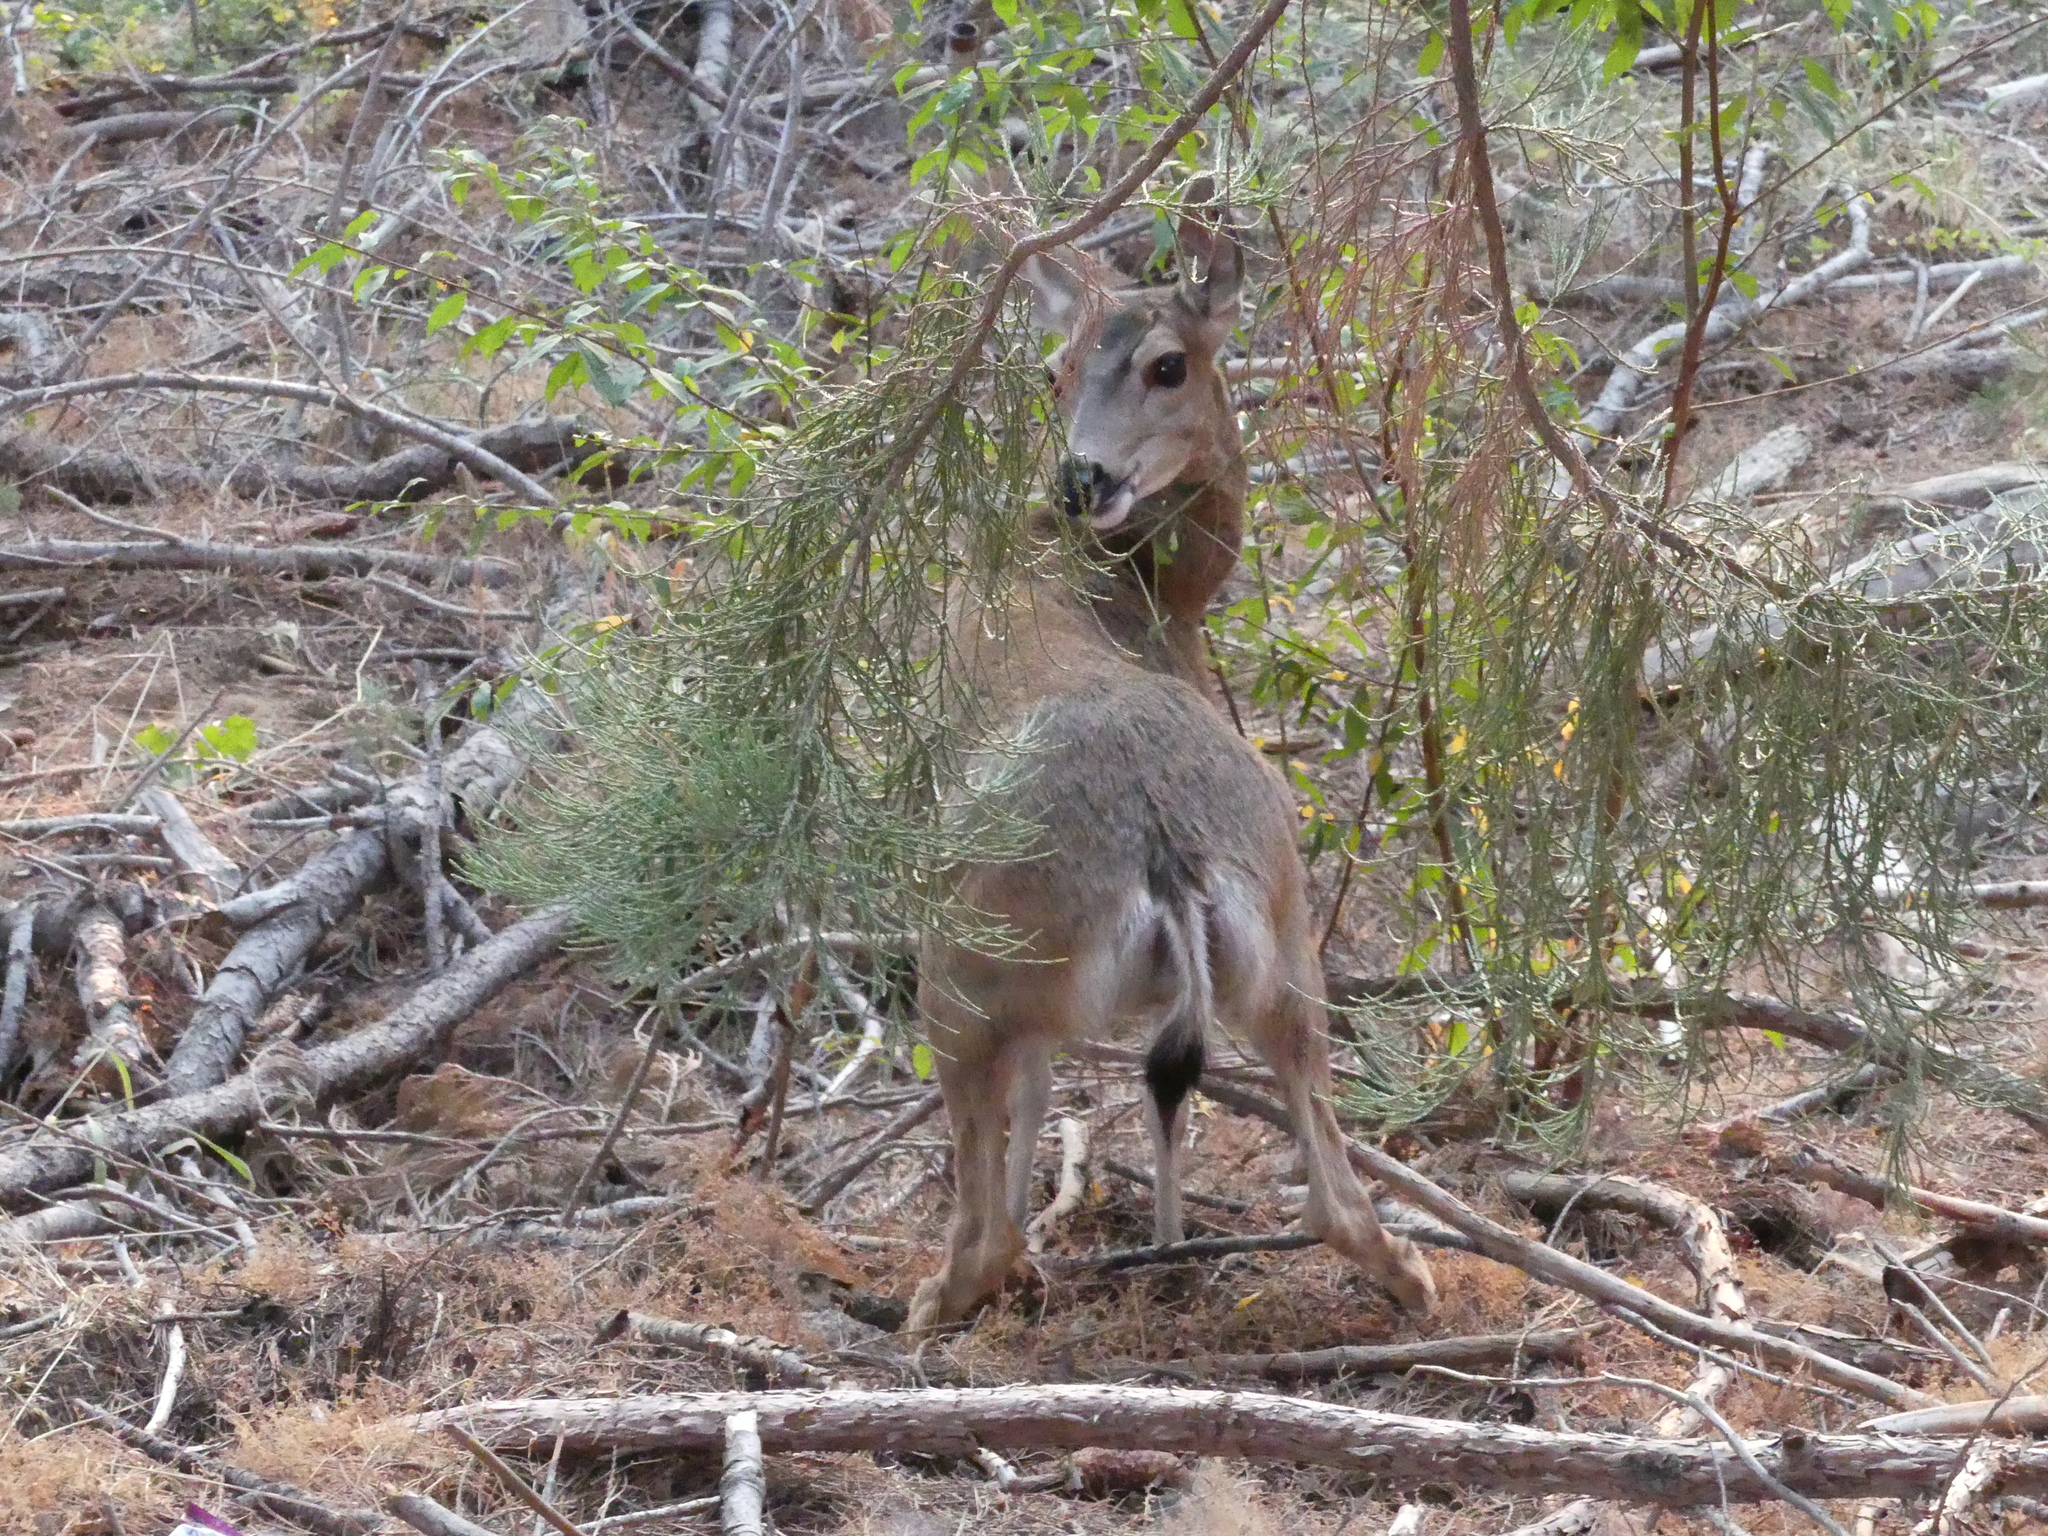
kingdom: Animalia
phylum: Chordata
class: Mammalia
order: Artiodactyla
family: Cervidae
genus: Odocoileus
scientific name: Odocoileus hemionus
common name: Mule deer
